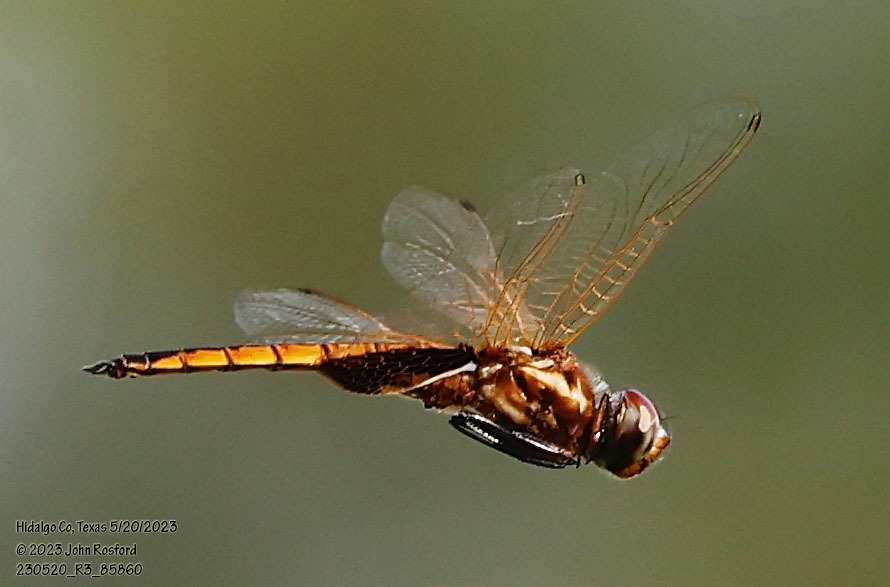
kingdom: Animalia
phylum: Arthropoda
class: Insecta
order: Odonata
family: Libellulidae
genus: Miathyria
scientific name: Miathyria marcella
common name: Hyacinth glider
